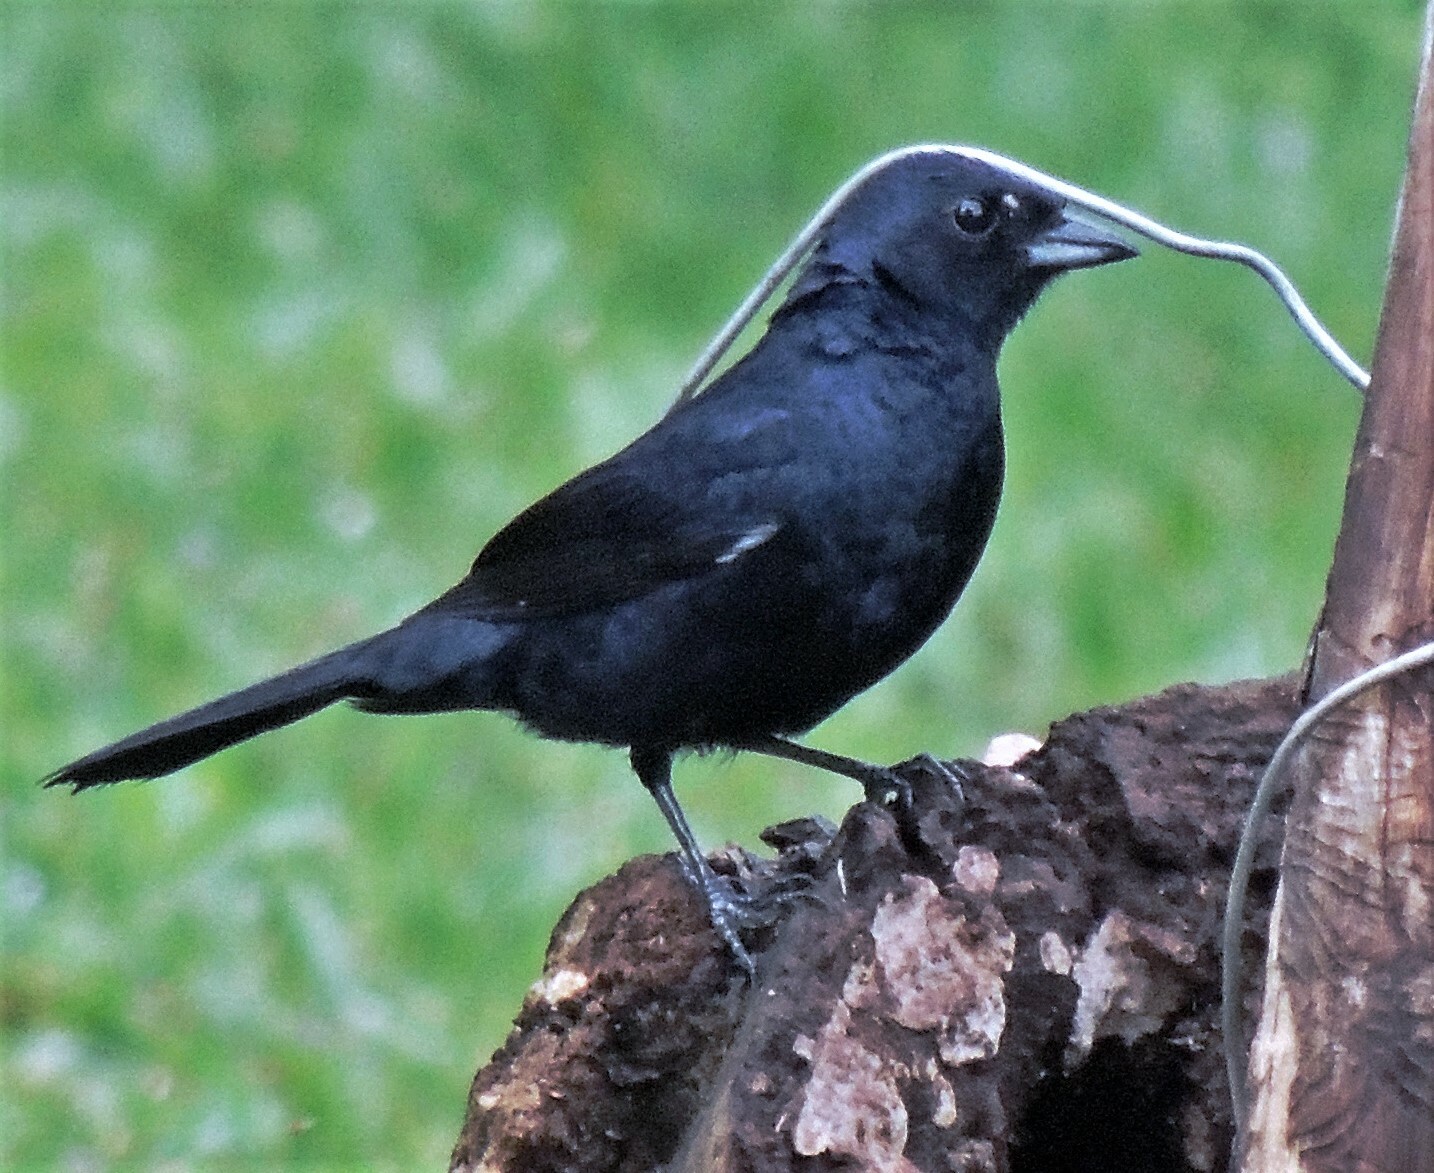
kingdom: Animalia
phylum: Chordata
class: Aves
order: Passeriformes
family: Thraupidae
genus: Tachyphonus
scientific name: Tachyphonus coronatus
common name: Ruby-crowned tanager
